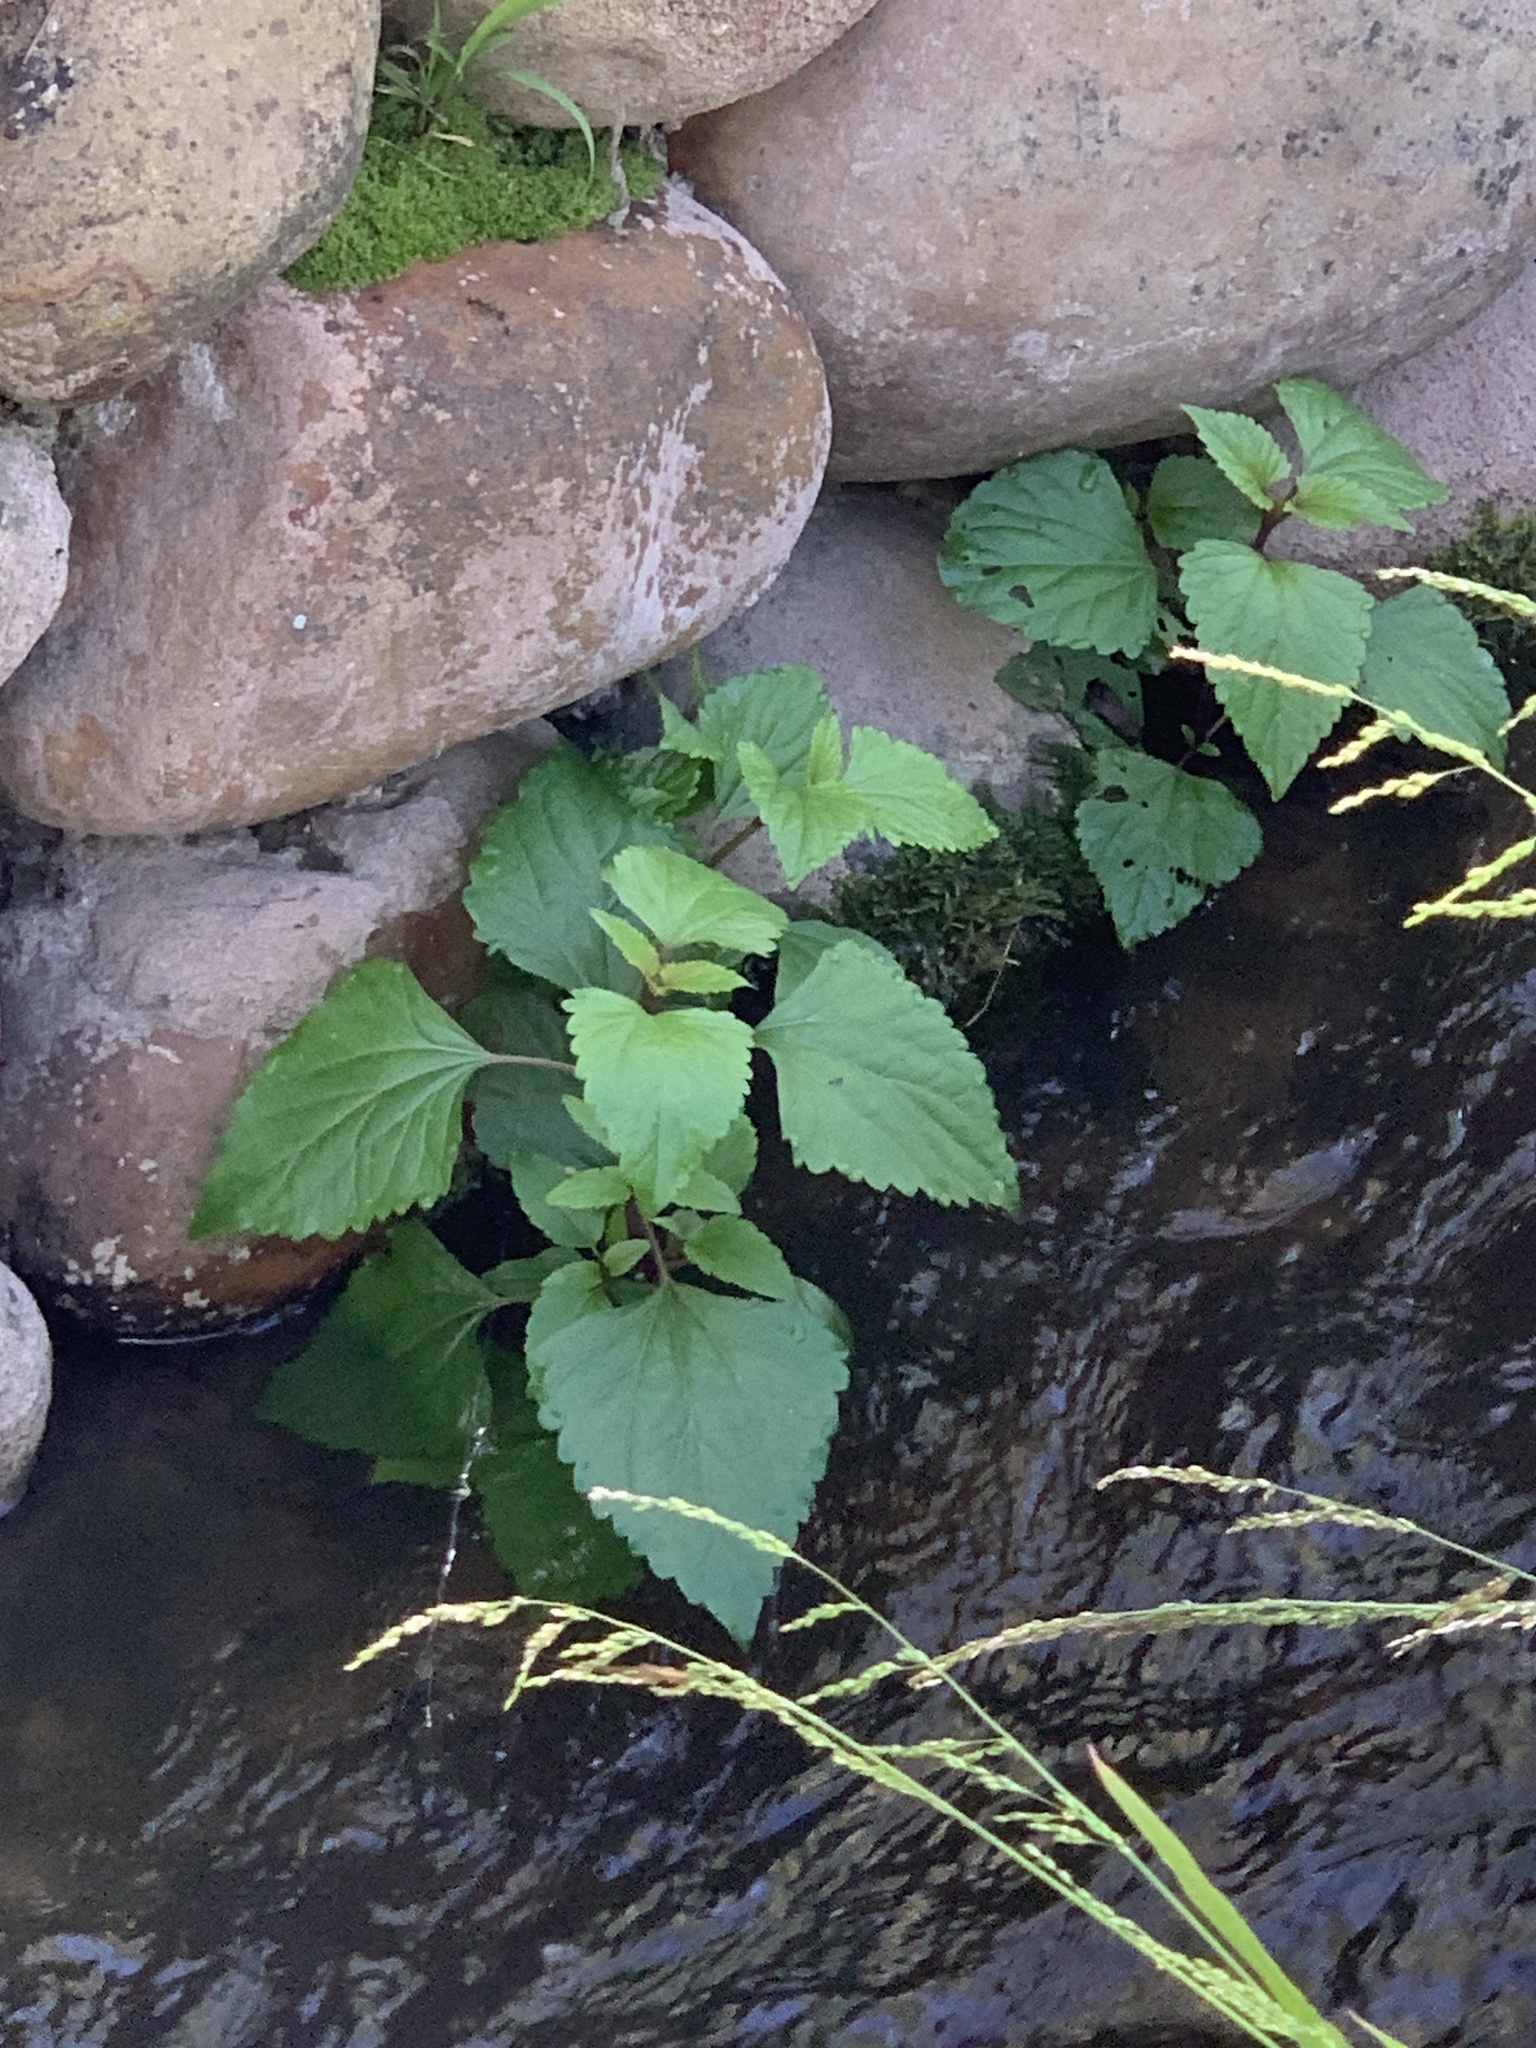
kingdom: Plantae
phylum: Tracheophyta
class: Magnoliopsida
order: Asterales
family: Asteraceae
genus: Ageratina
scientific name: Ageratina adenophora
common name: Sticky snakeroot
